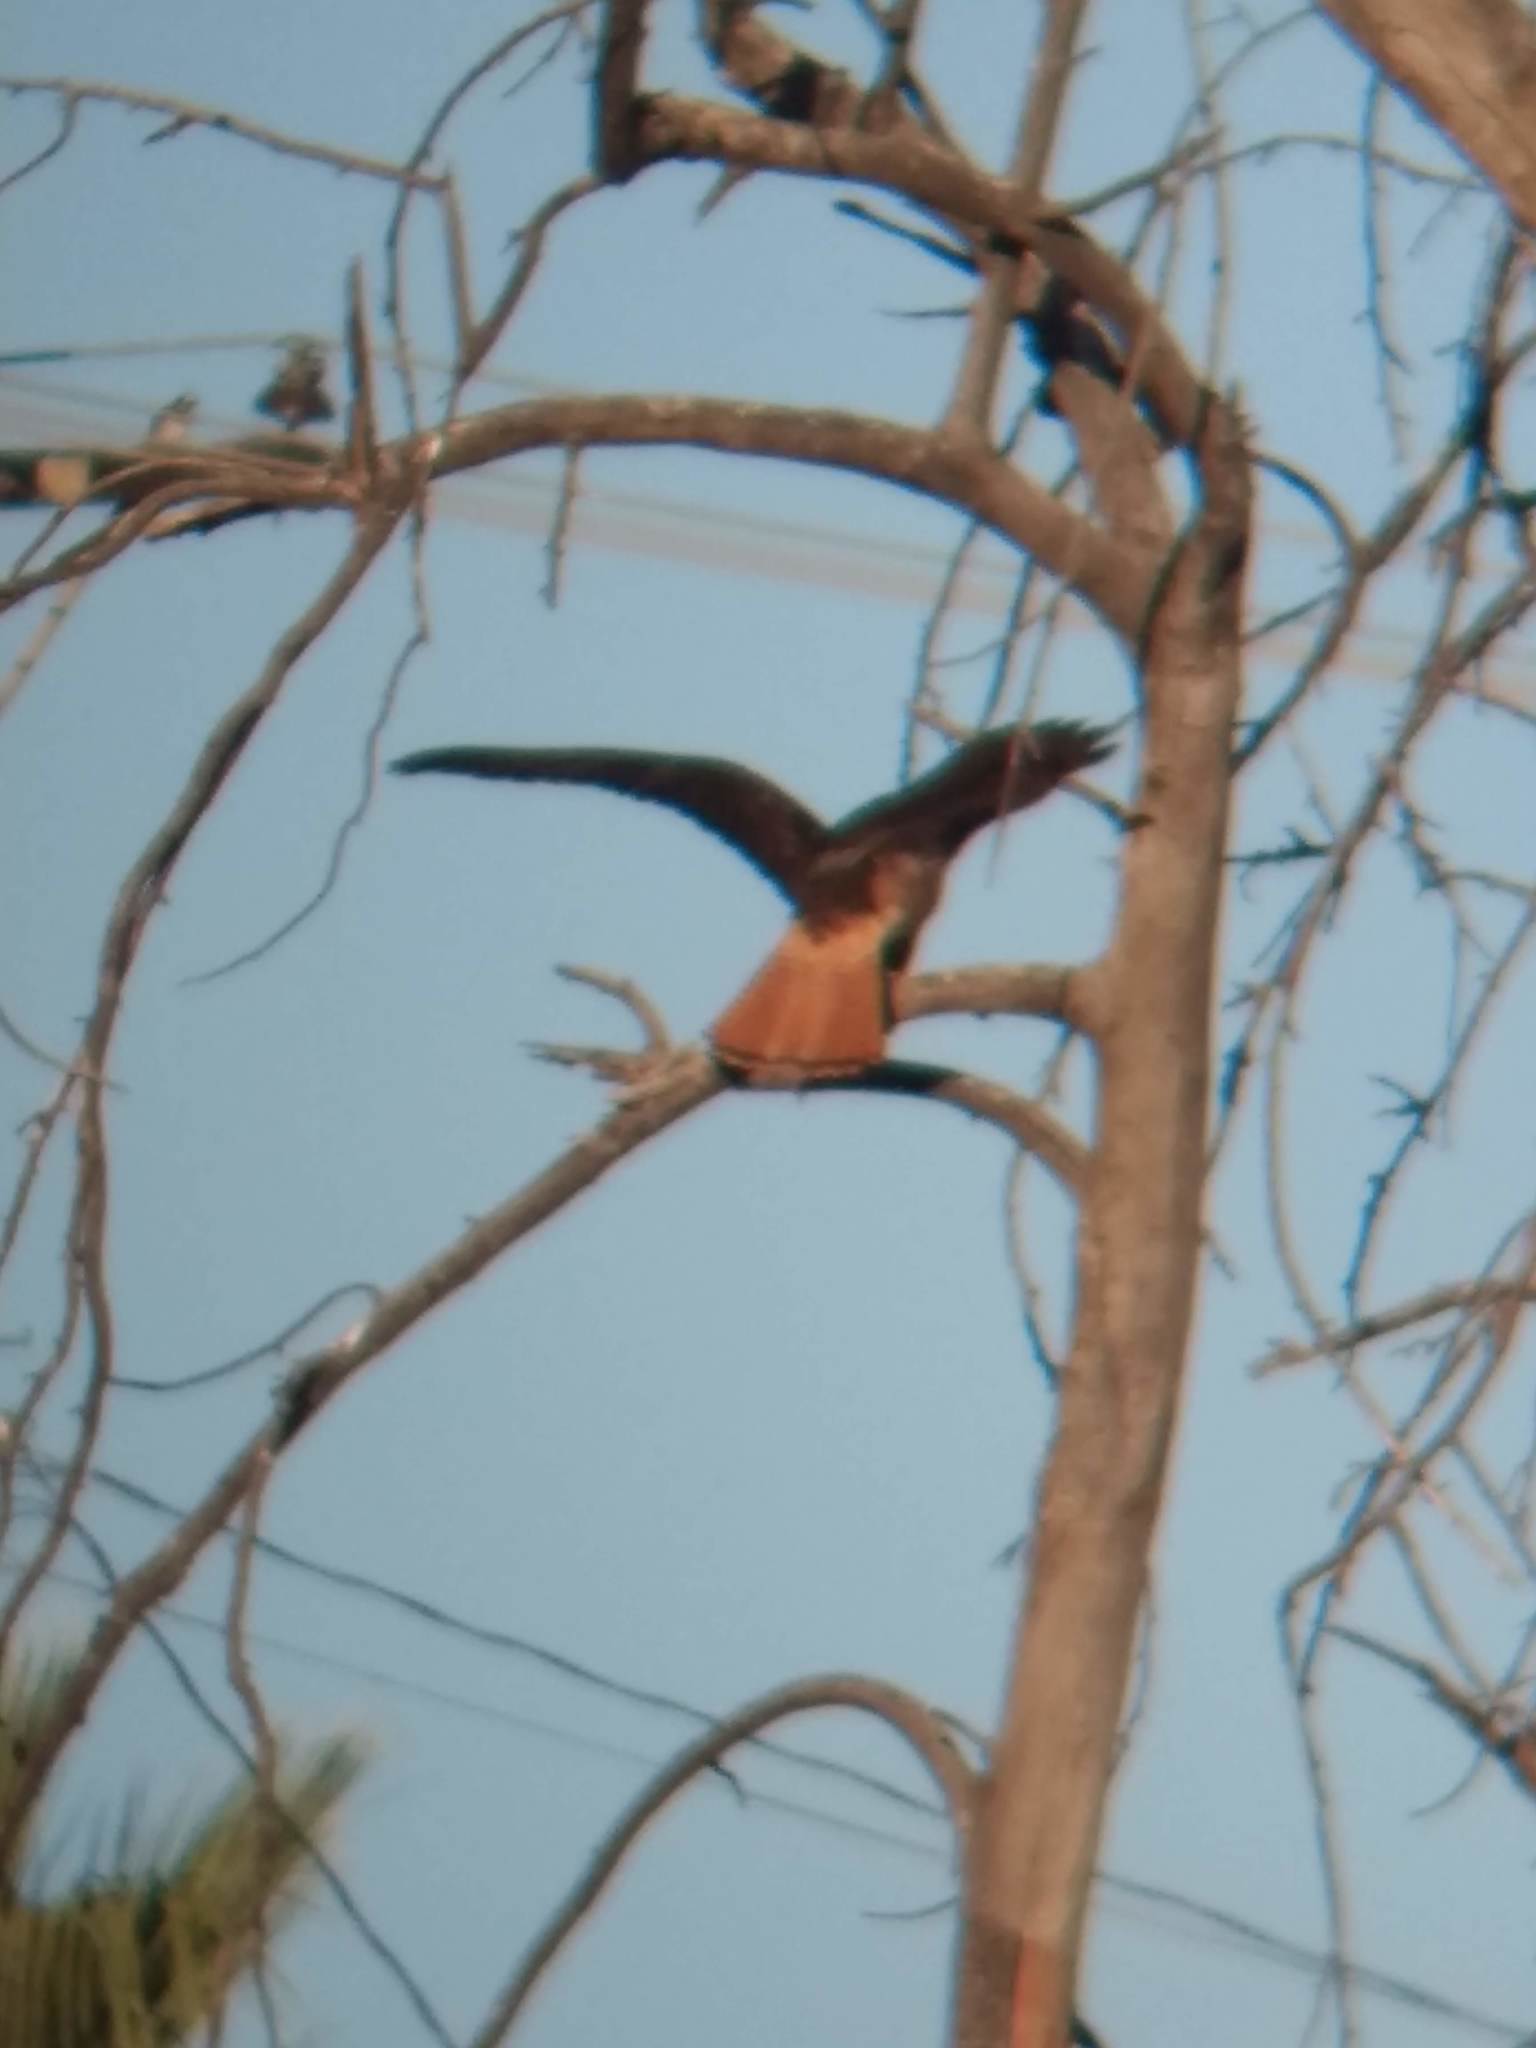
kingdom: Animalia
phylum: Chordata
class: Aves
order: Accipitriformes
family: Accipitridae
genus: Buteo
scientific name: Buteo jamaicensis
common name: Red-tailed hawk
